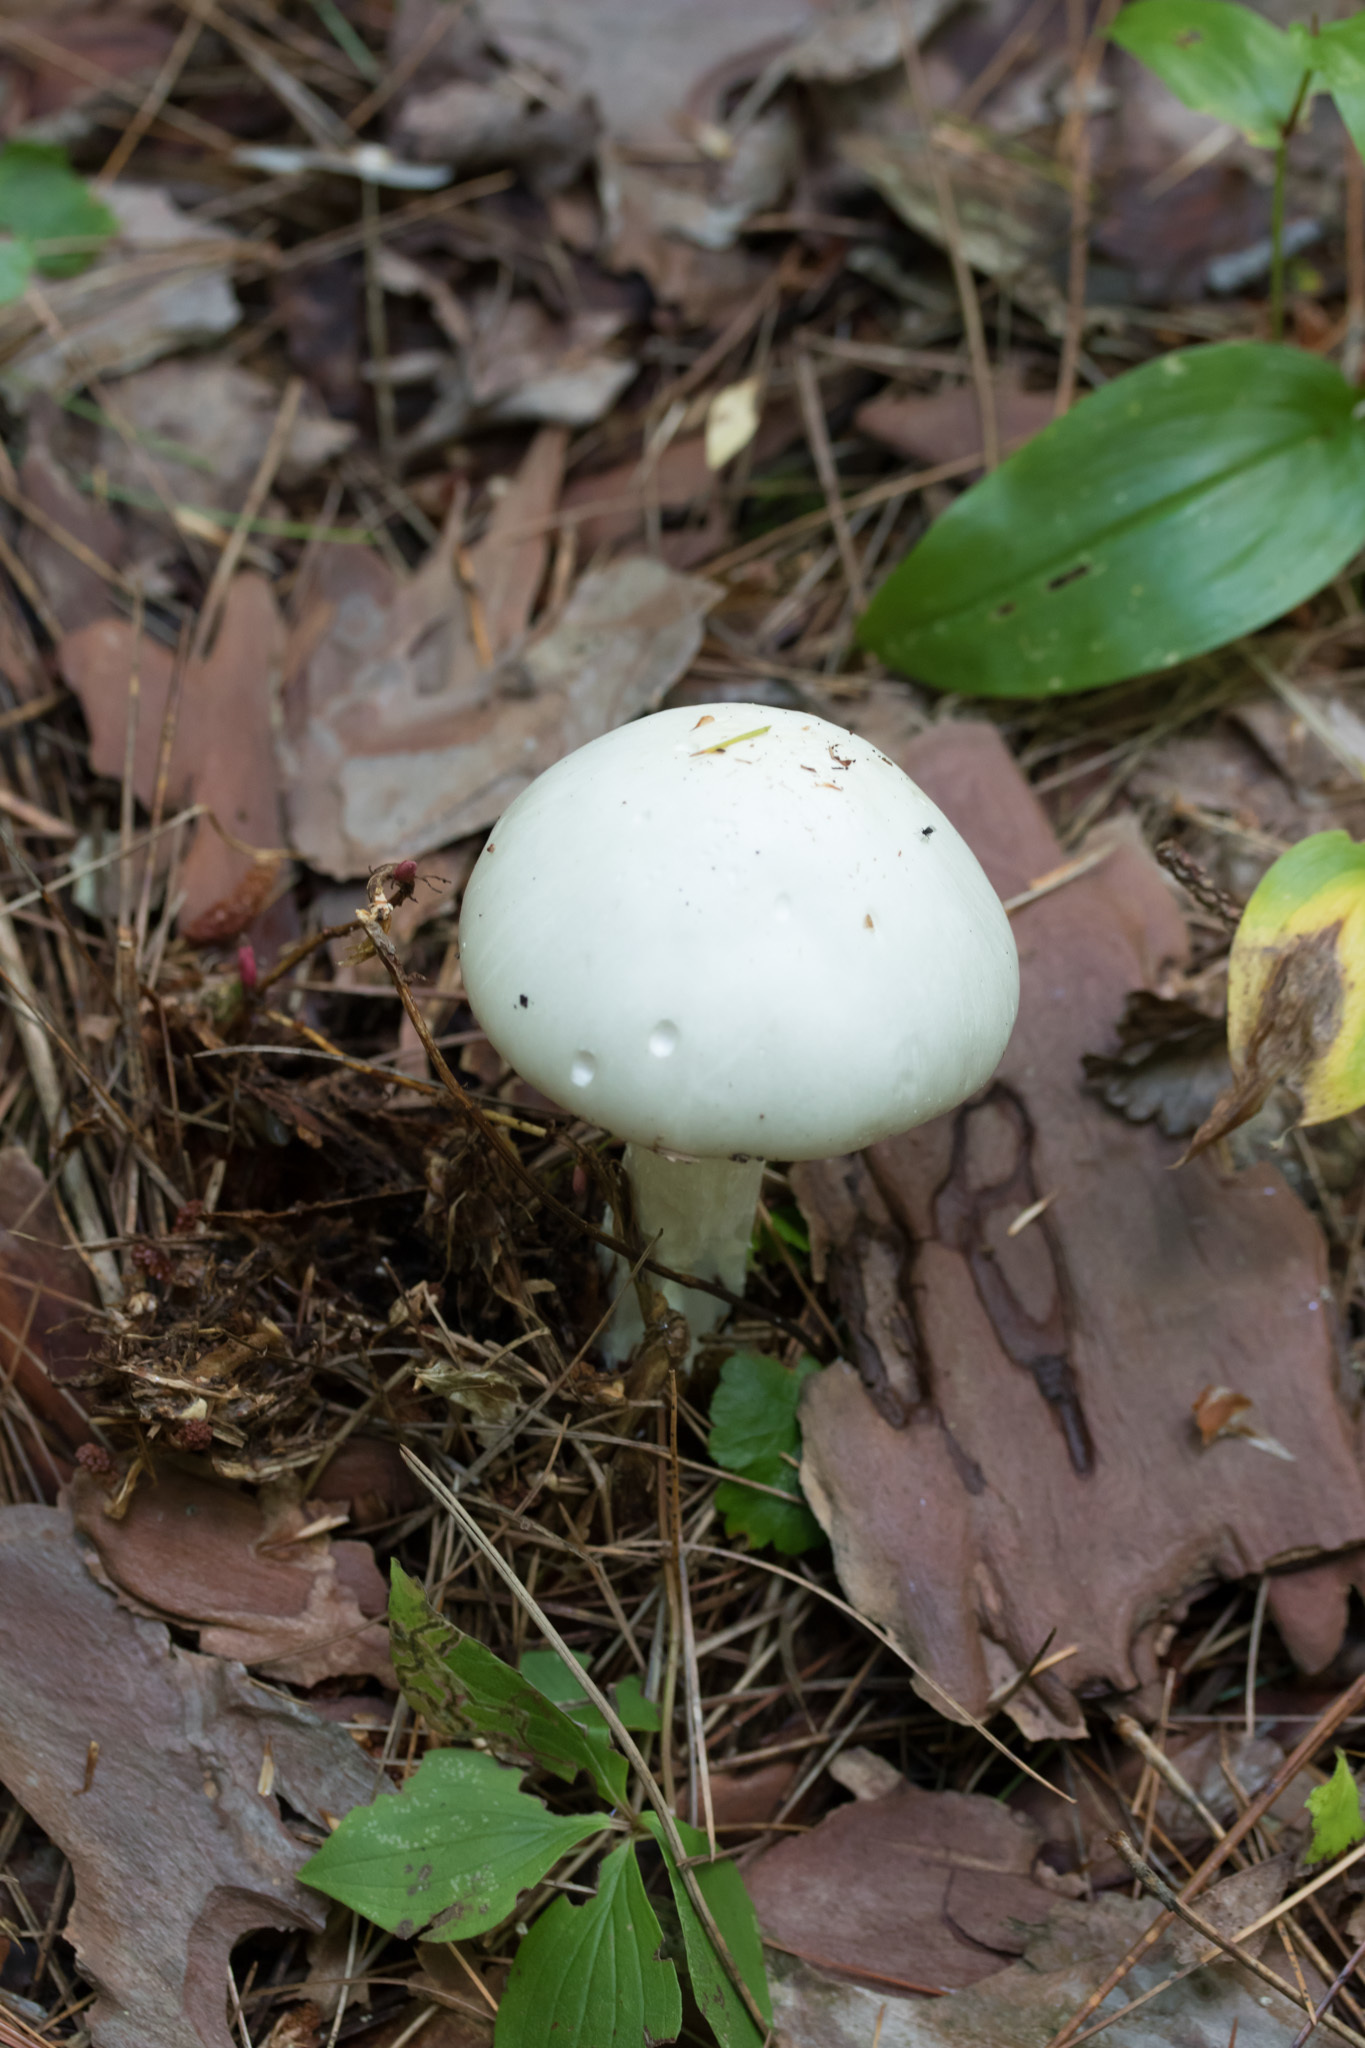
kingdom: Fungi
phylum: Basidiomycota
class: Agaricomycetes
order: Agaricales
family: Amanitaceae
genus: Amanita
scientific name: Amanita bisporigera
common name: Eastern north american destroying angel
